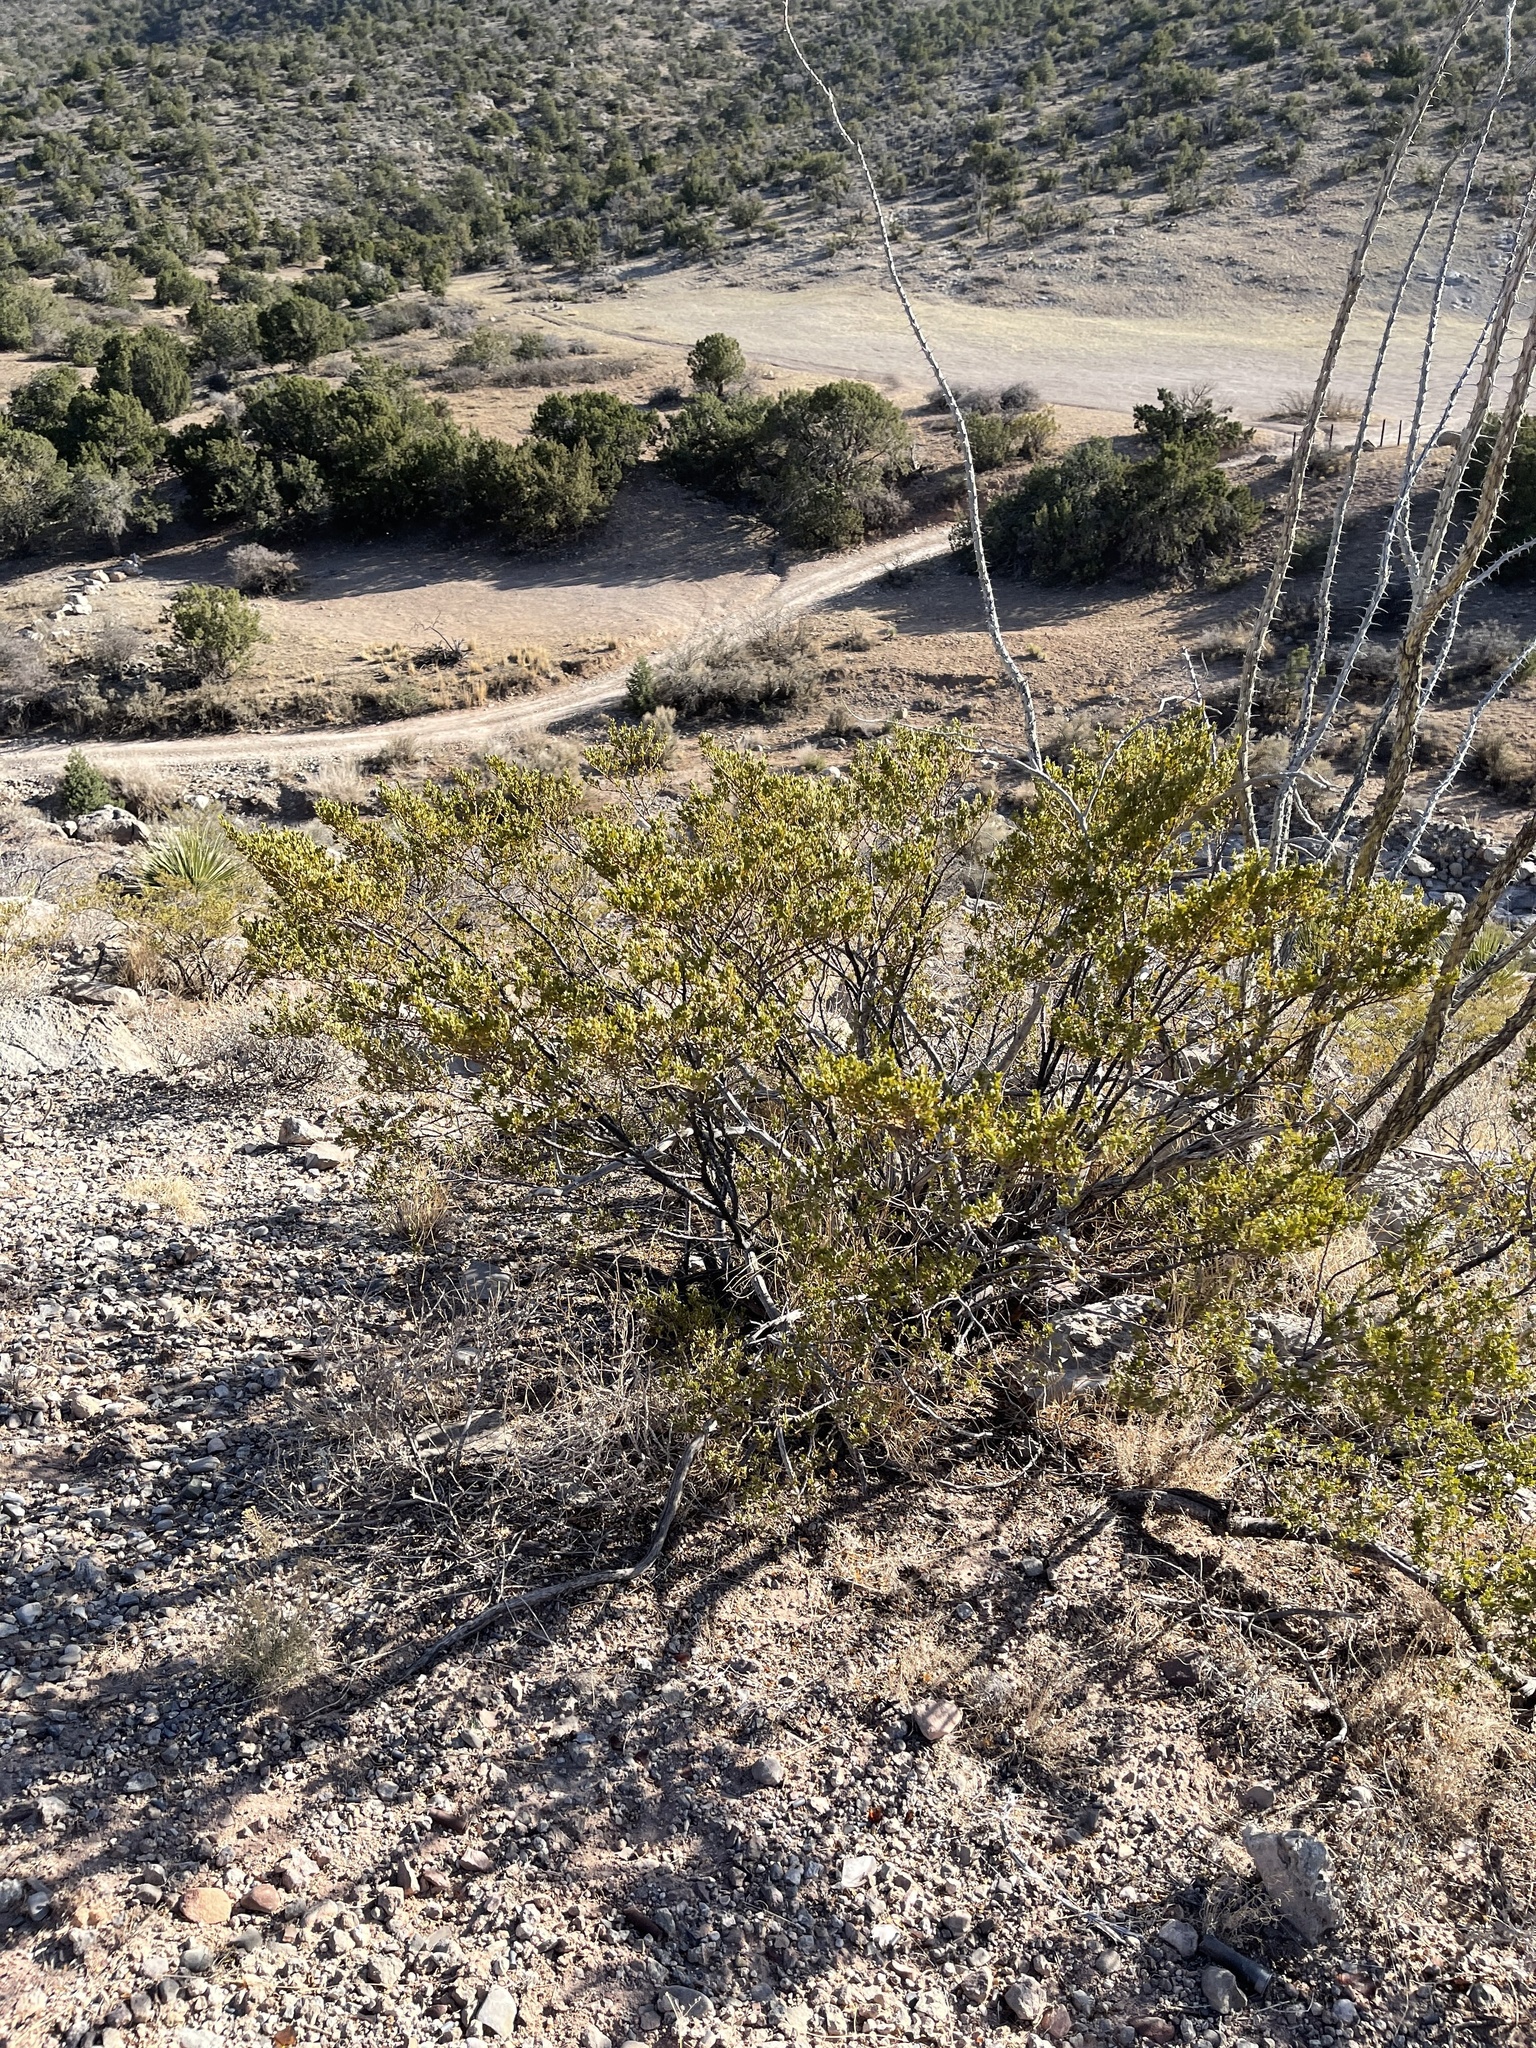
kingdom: Plantae
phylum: Tracheophyta
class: Magnoliopsida
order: Zygophyllales
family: Zygophyllaceae
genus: Larrea
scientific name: Larrea tridentata
